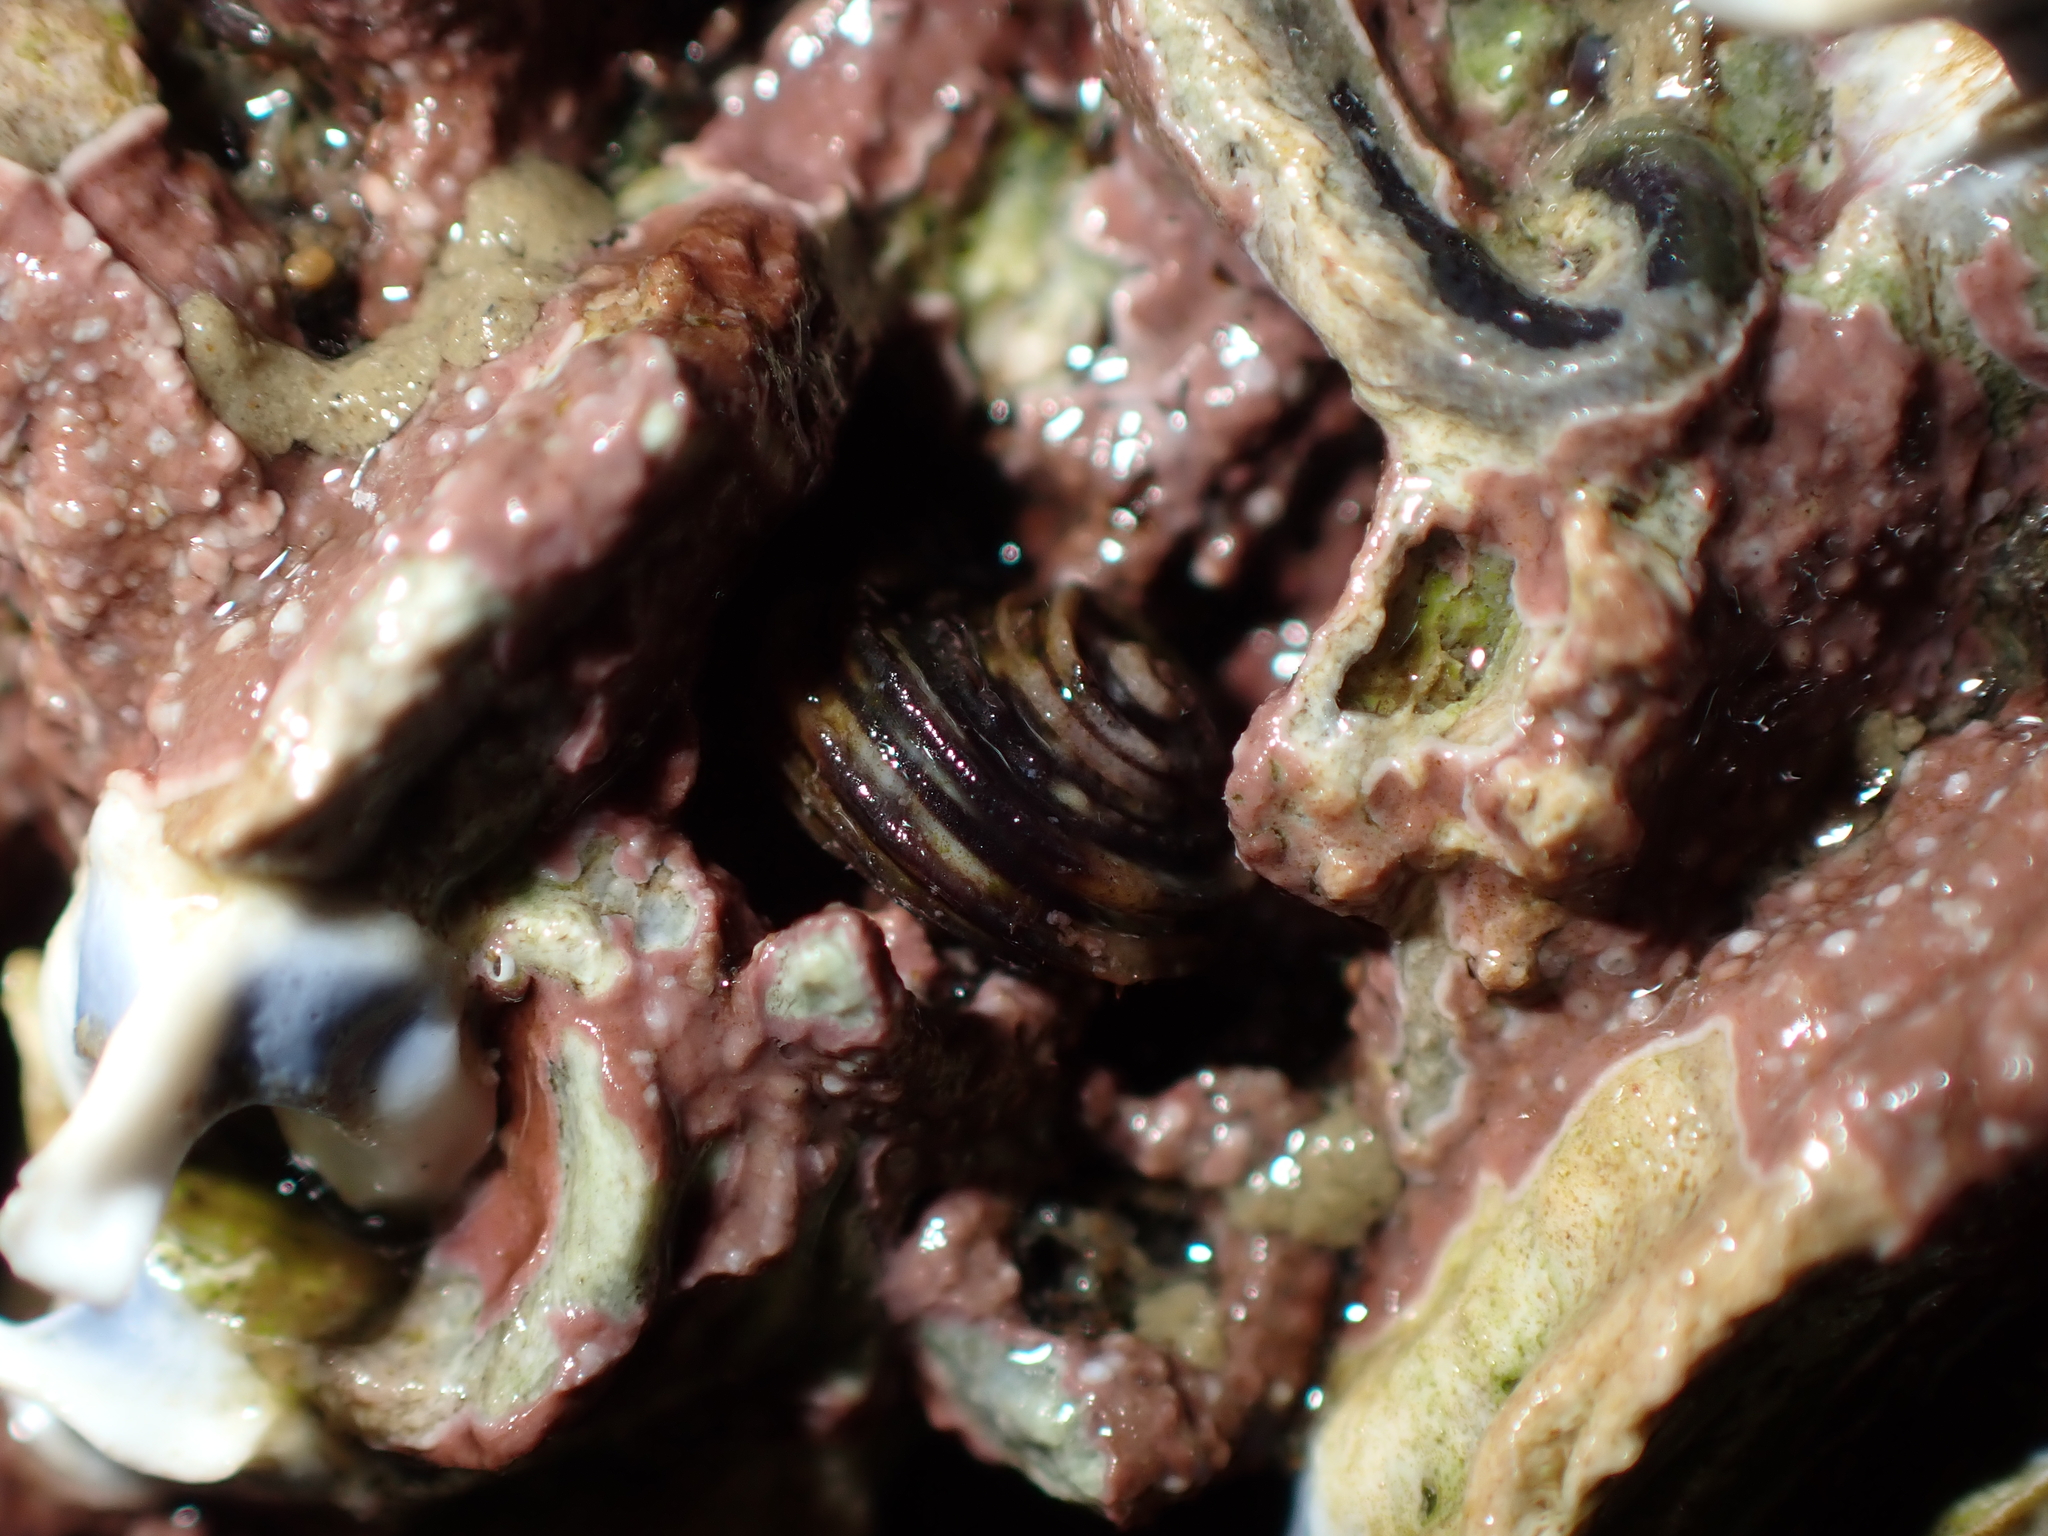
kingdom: Animalia
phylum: Mollusca
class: Gastropoda
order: Littorinimorpha
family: Littorinidae
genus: Risellopsis
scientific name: Risellopsis varia
